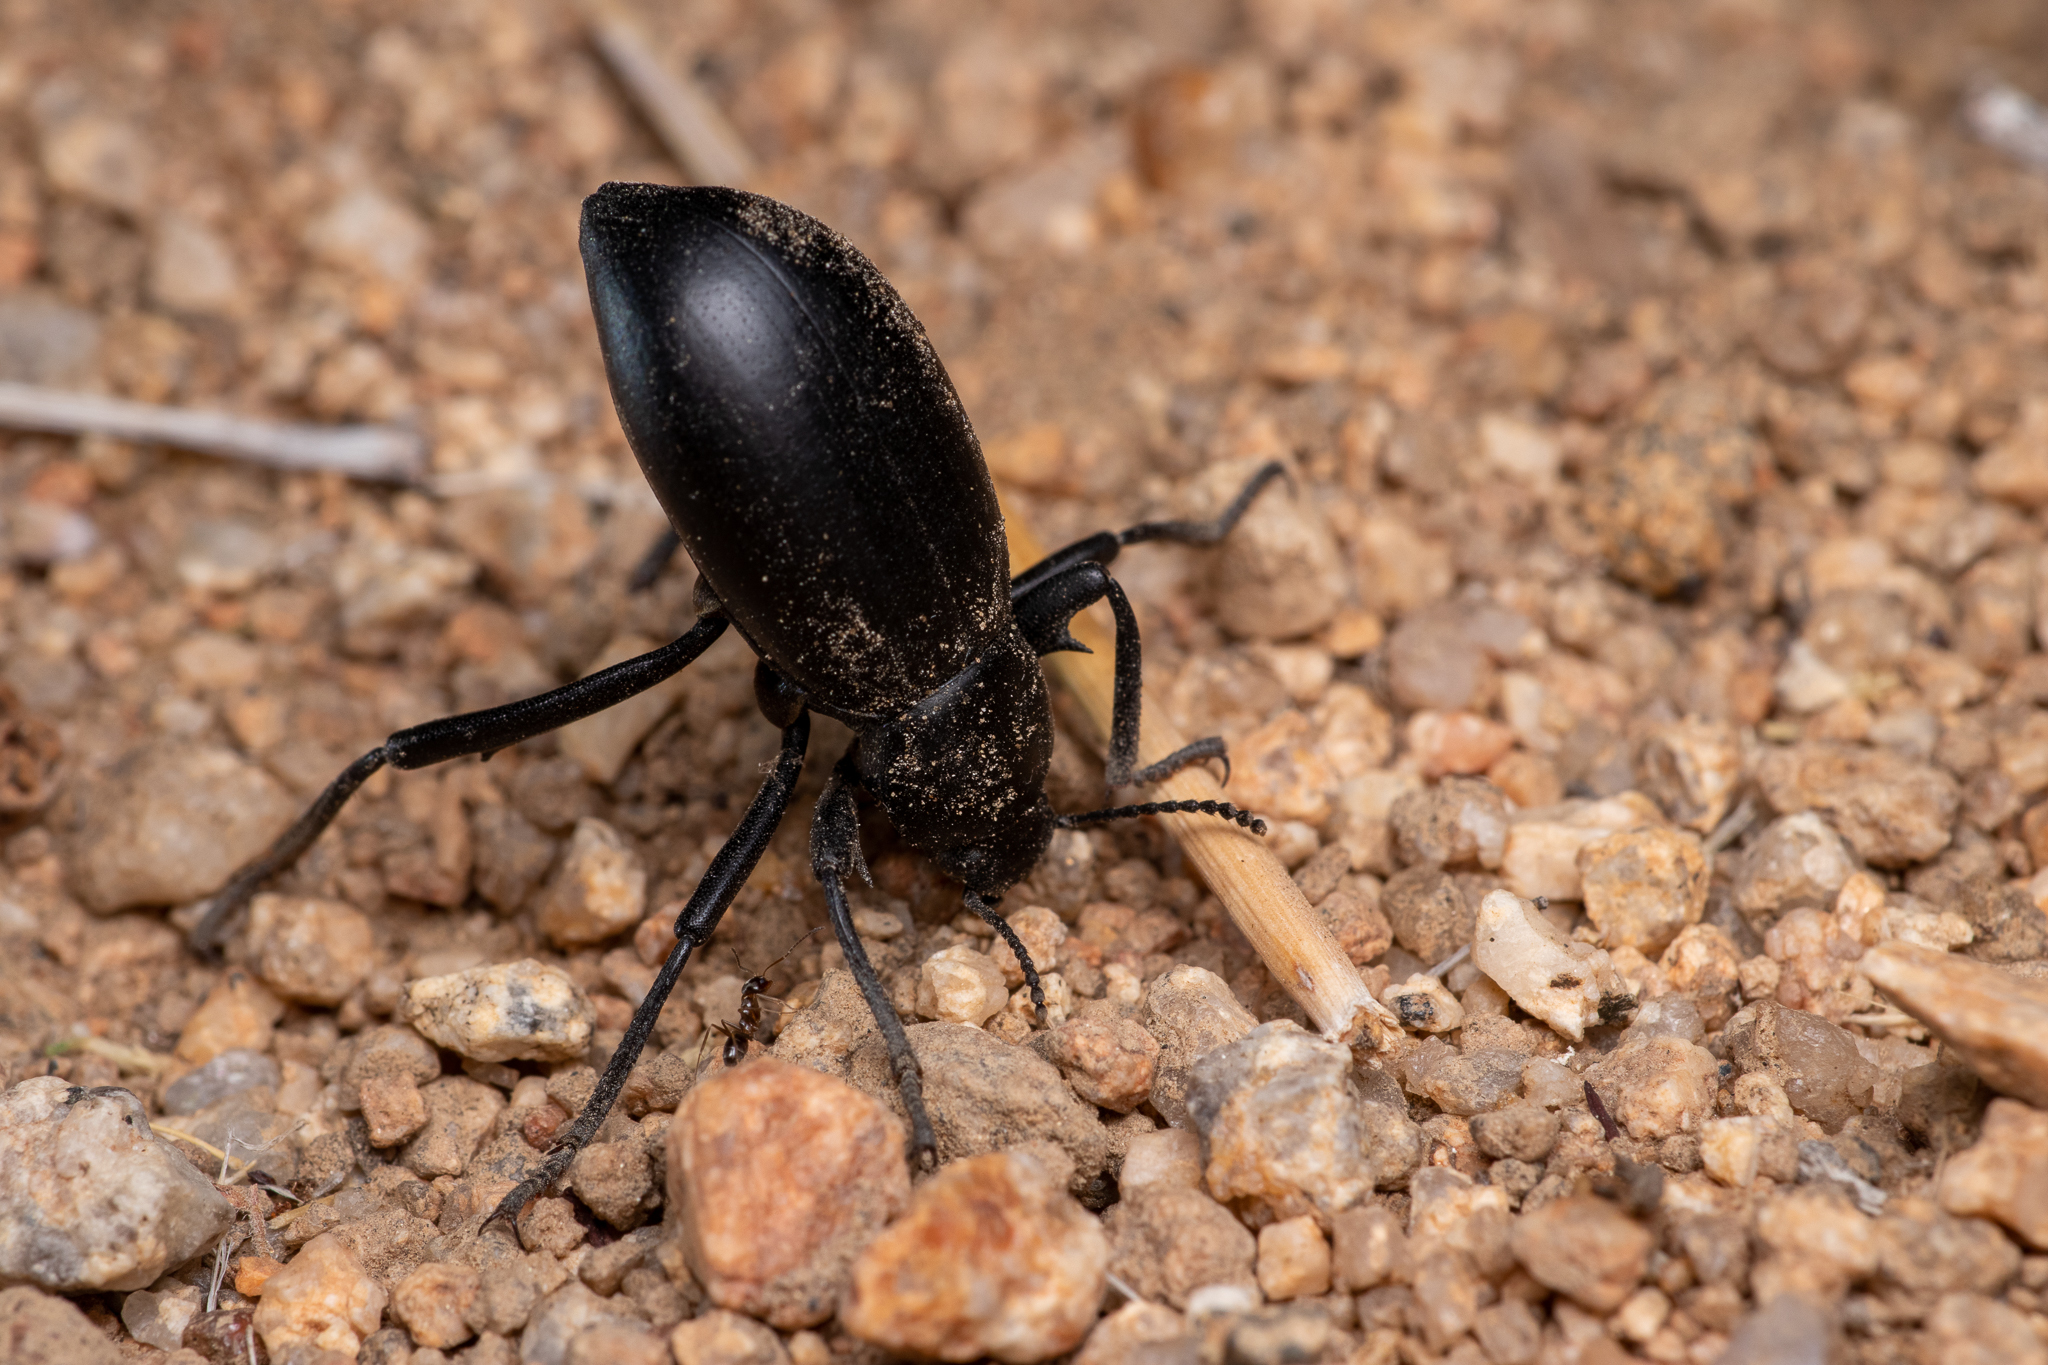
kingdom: Animalia
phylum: Arthropoda
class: Insecta
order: Coleoptera
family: Tenebrionidae
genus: Eleodes
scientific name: Eleodes armata
